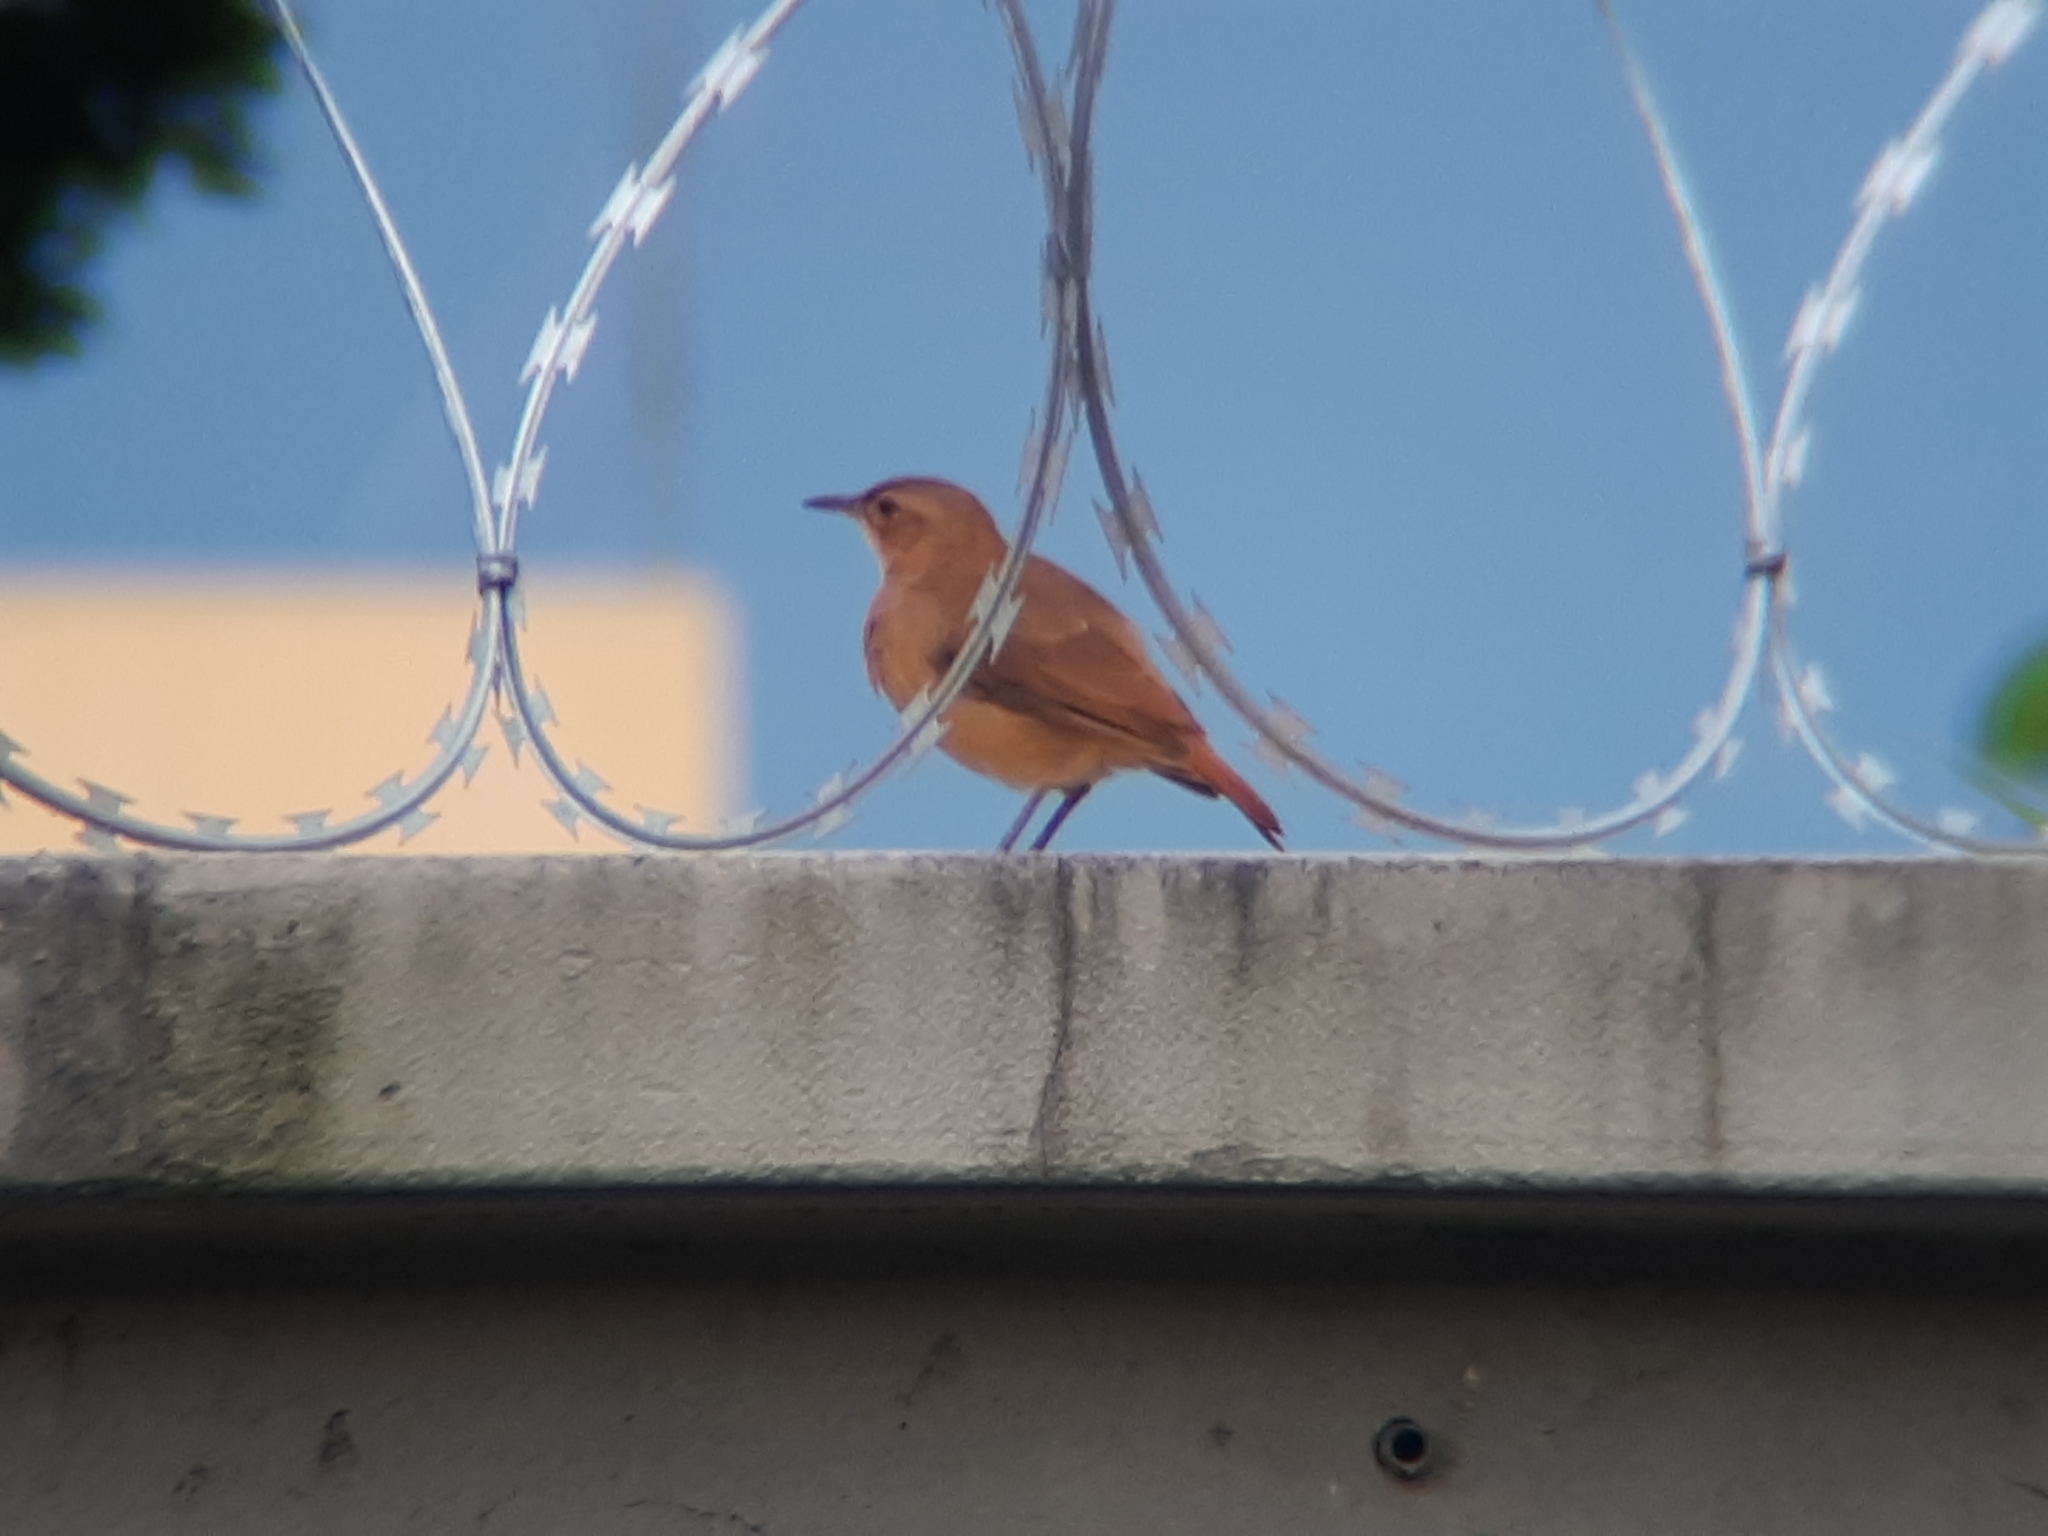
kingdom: Animalia
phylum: Chordata
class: Aves
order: Passeriformes
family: Furnariidae
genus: Furnarius
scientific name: Furnarius rufus
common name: Rufous hornero
